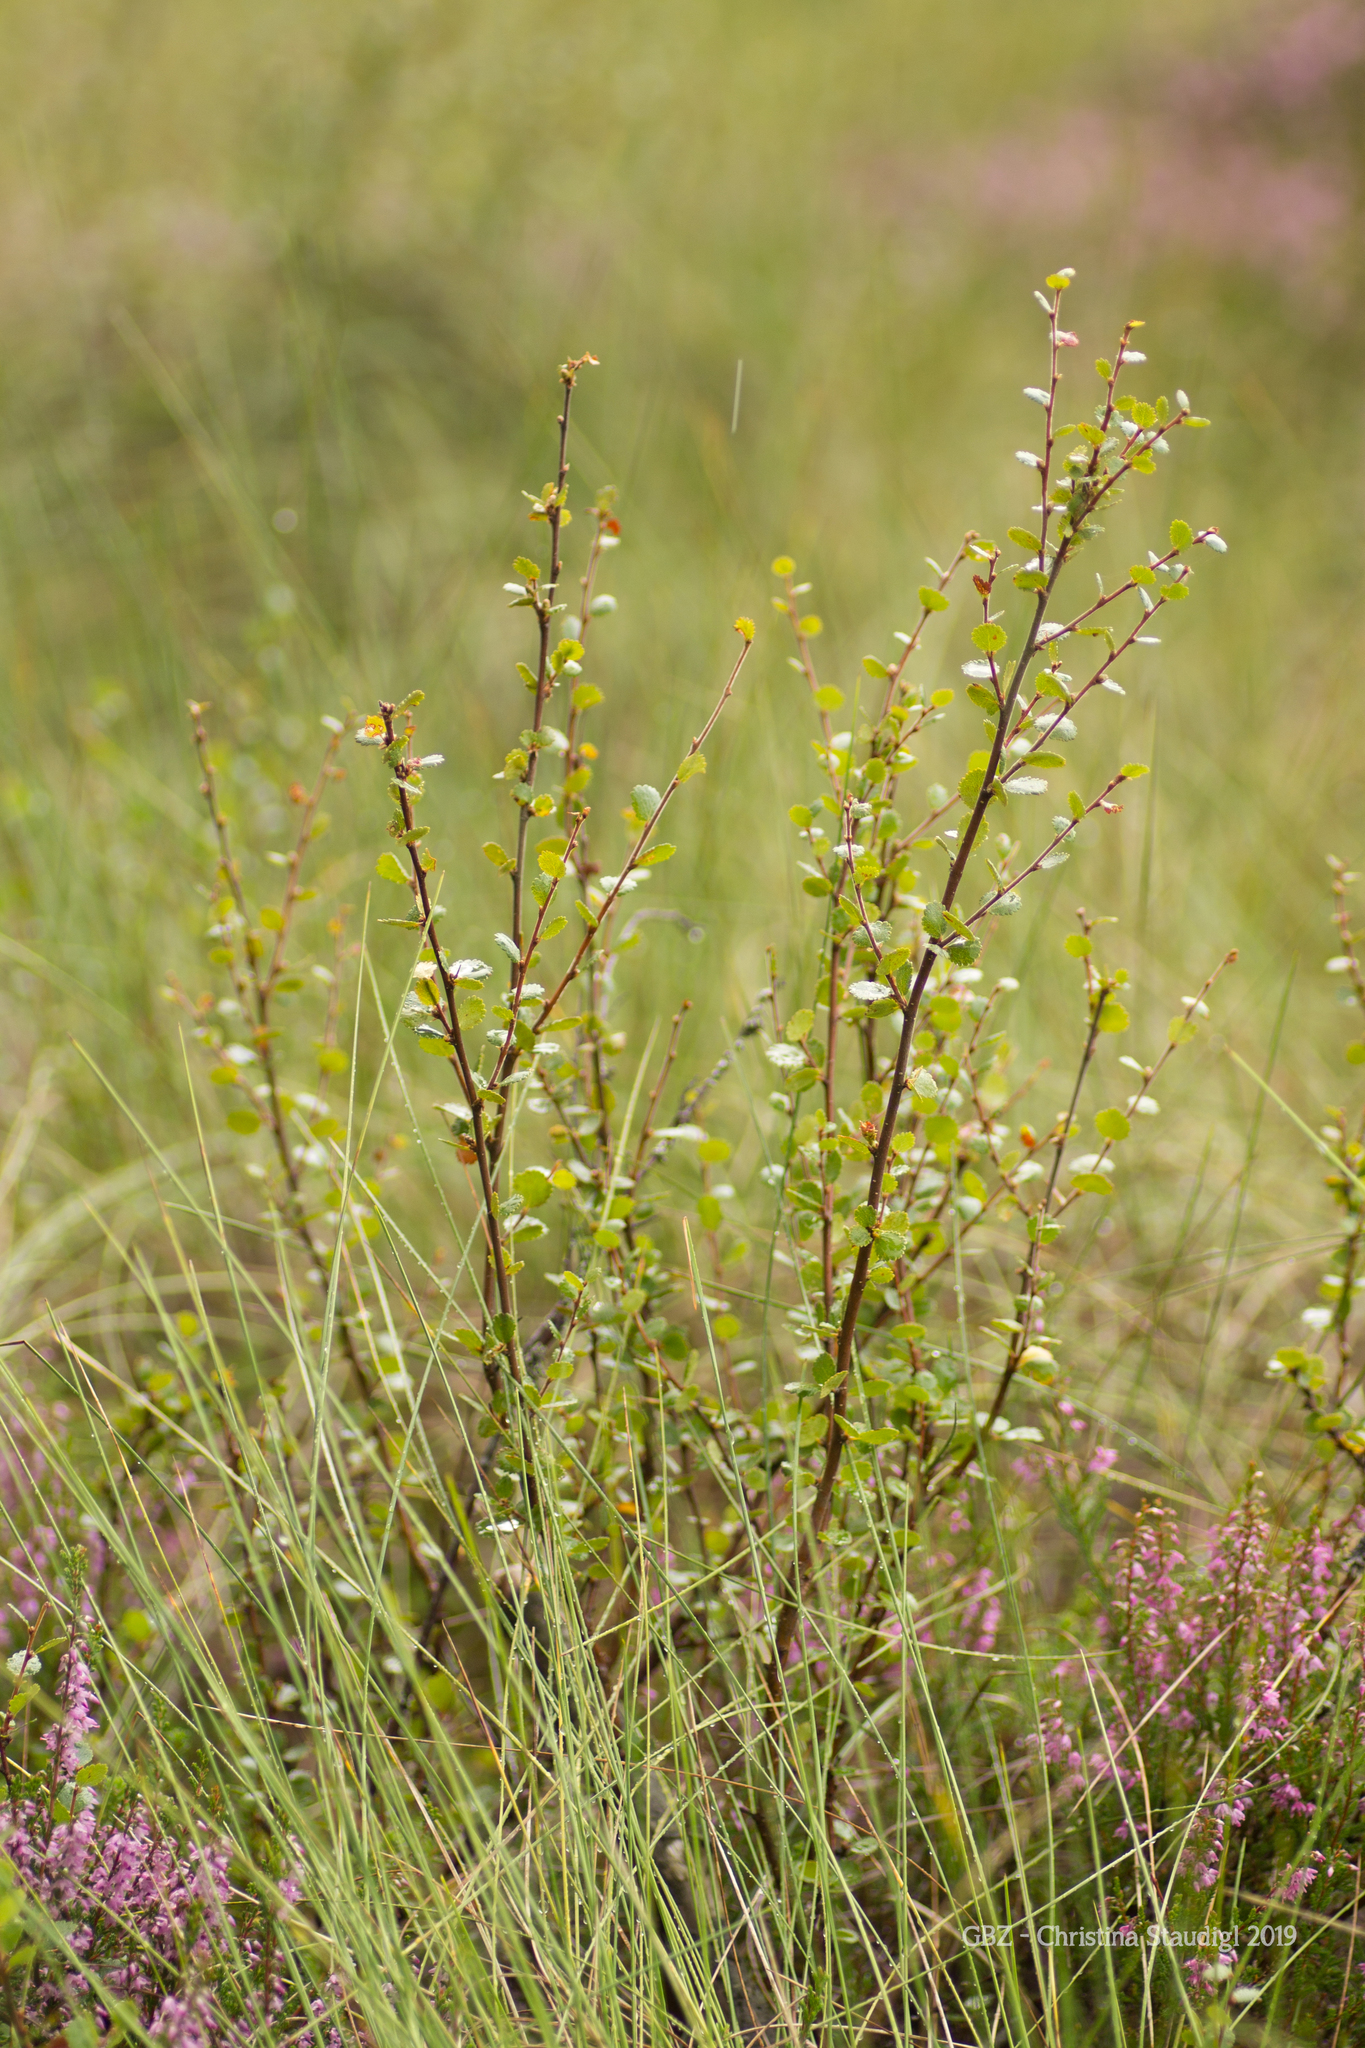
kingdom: Plantae
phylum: Tracheophyta
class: Magnoliopsida
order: Fagales
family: Betulaceae
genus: Betula
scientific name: Betula nana
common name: Arctic dwarf birch
